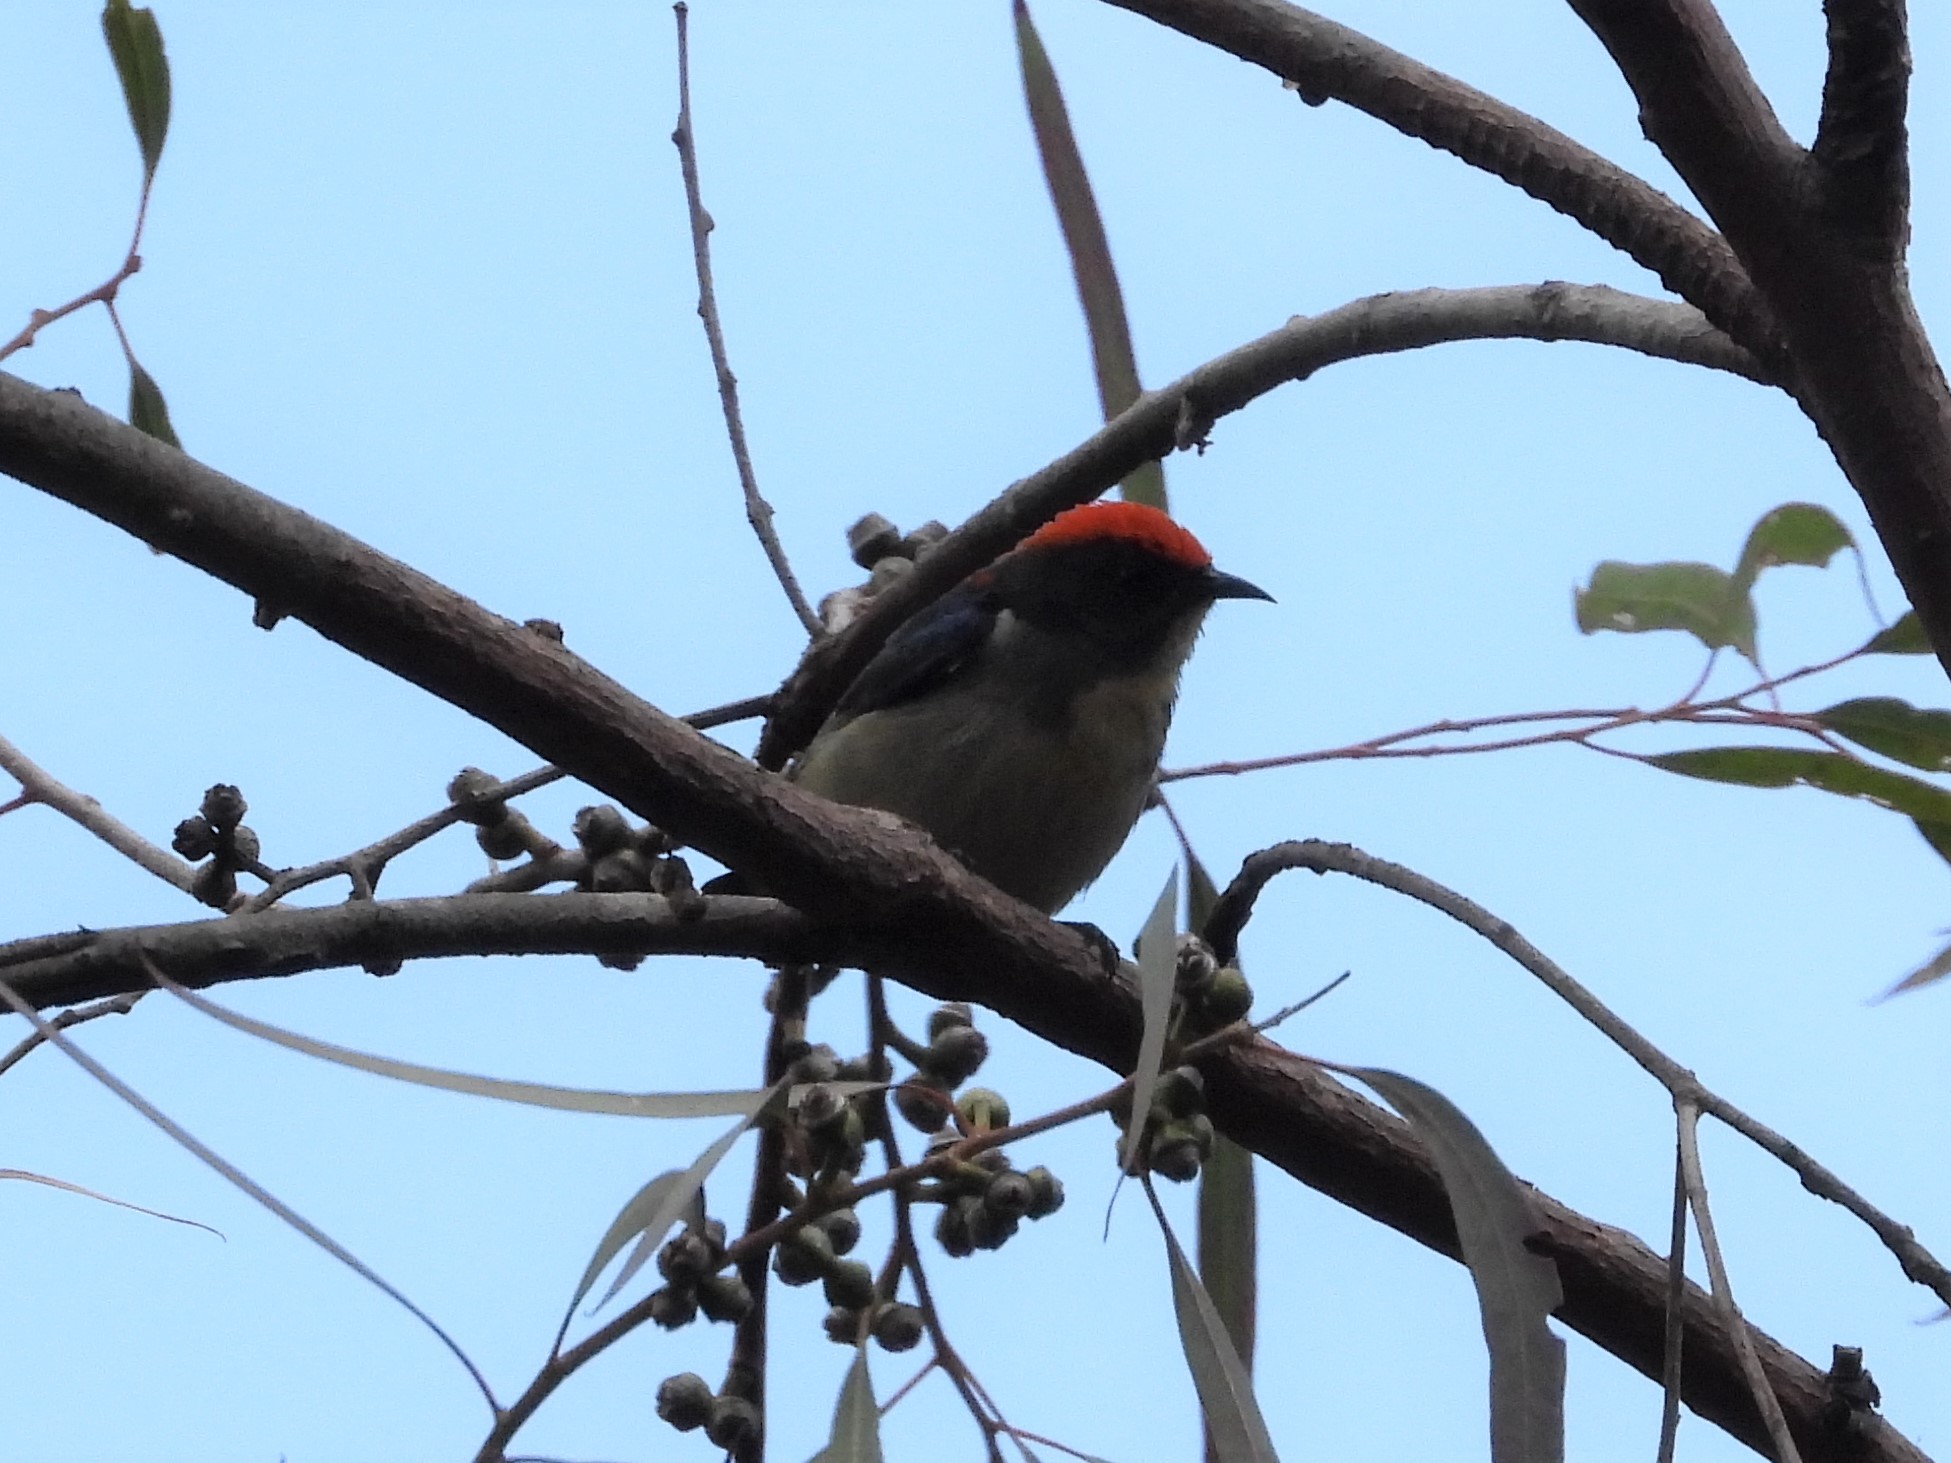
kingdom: Animalia
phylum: Chordata
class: Aves
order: Passeriformes
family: Dicaeidae
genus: Dicaeum
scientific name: Dicaeum cruentatum
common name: Scarlet-backed flowerpecker
